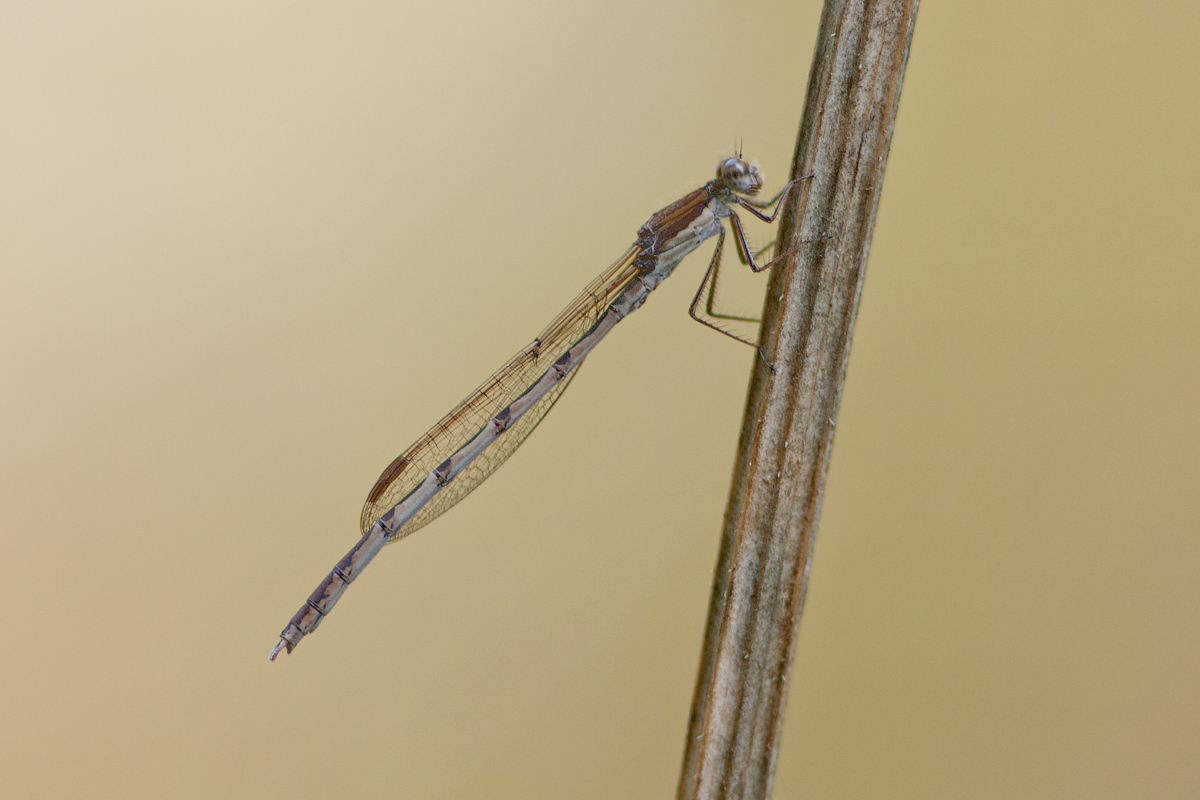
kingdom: Animalia
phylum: Arthropoda
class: Insecta
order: Odonata
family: Lestidae
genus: Sympecma
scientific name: Sympecma fusca
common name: Common winter damsel
